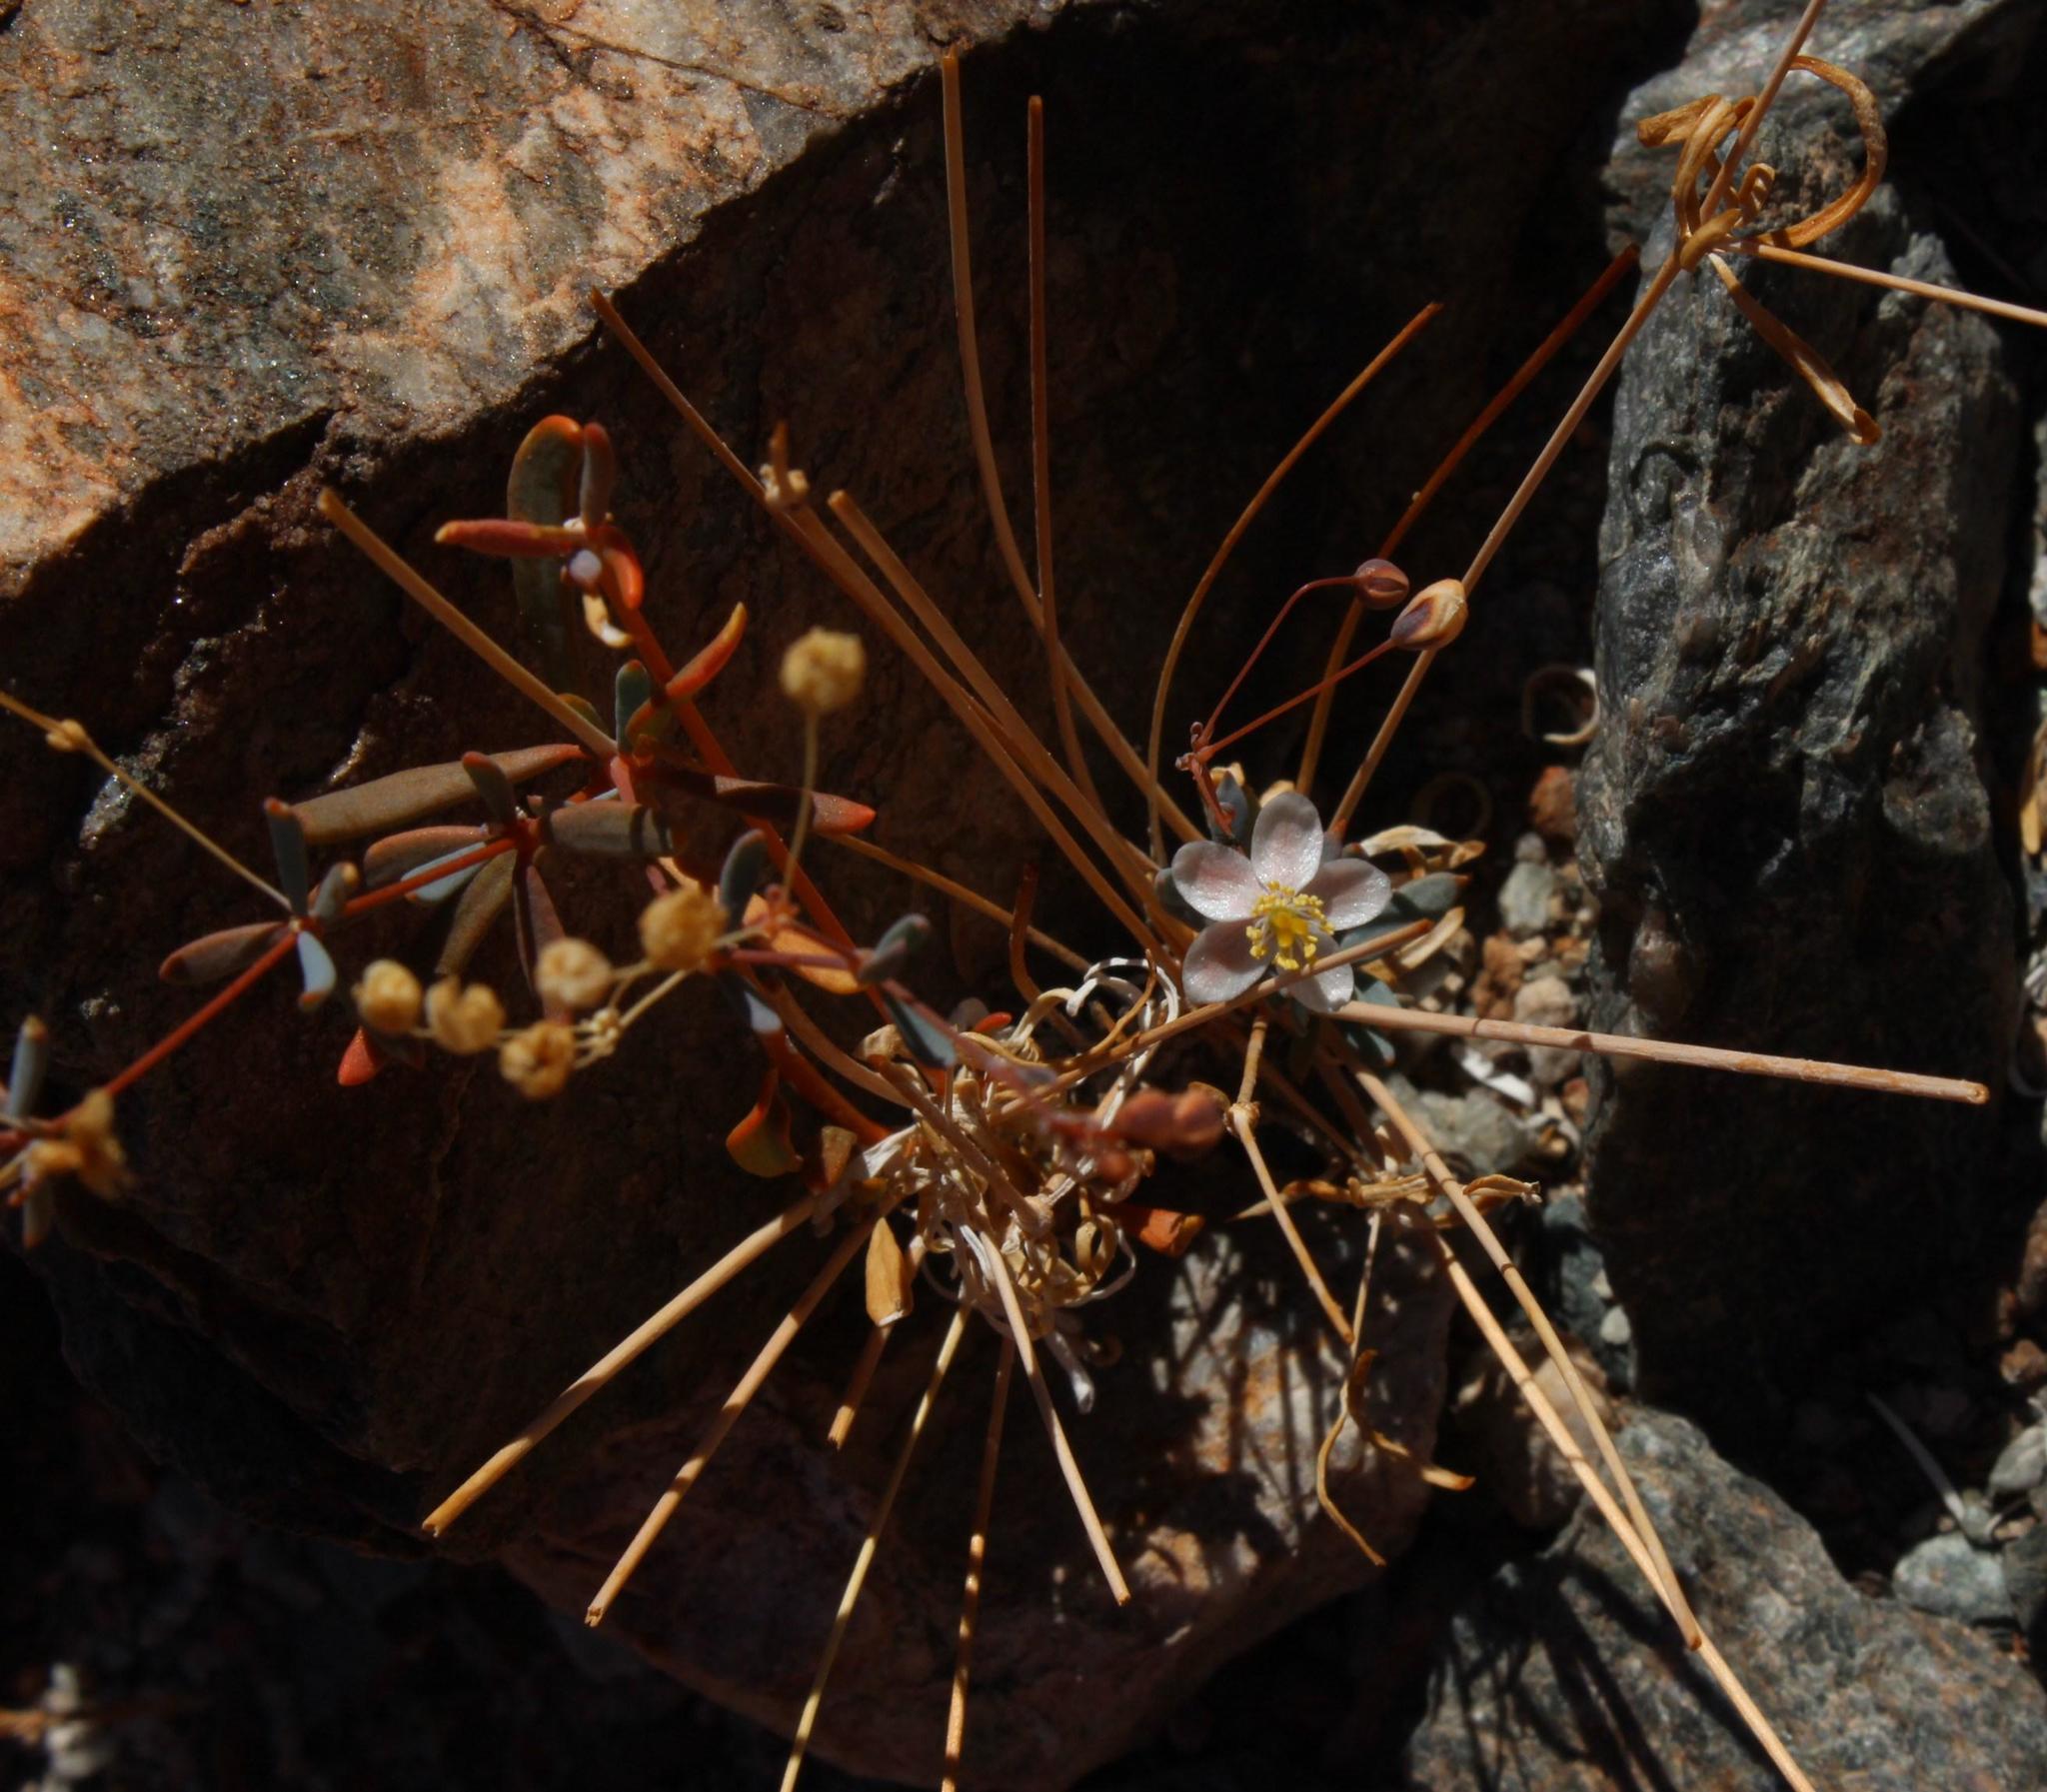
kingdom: Plantae
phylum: Tracheophyta
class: Magnoliopsida
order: Caryophyllales
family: Molluginaceae
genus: Hypertelis
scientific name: Hypertelis spergulacea
